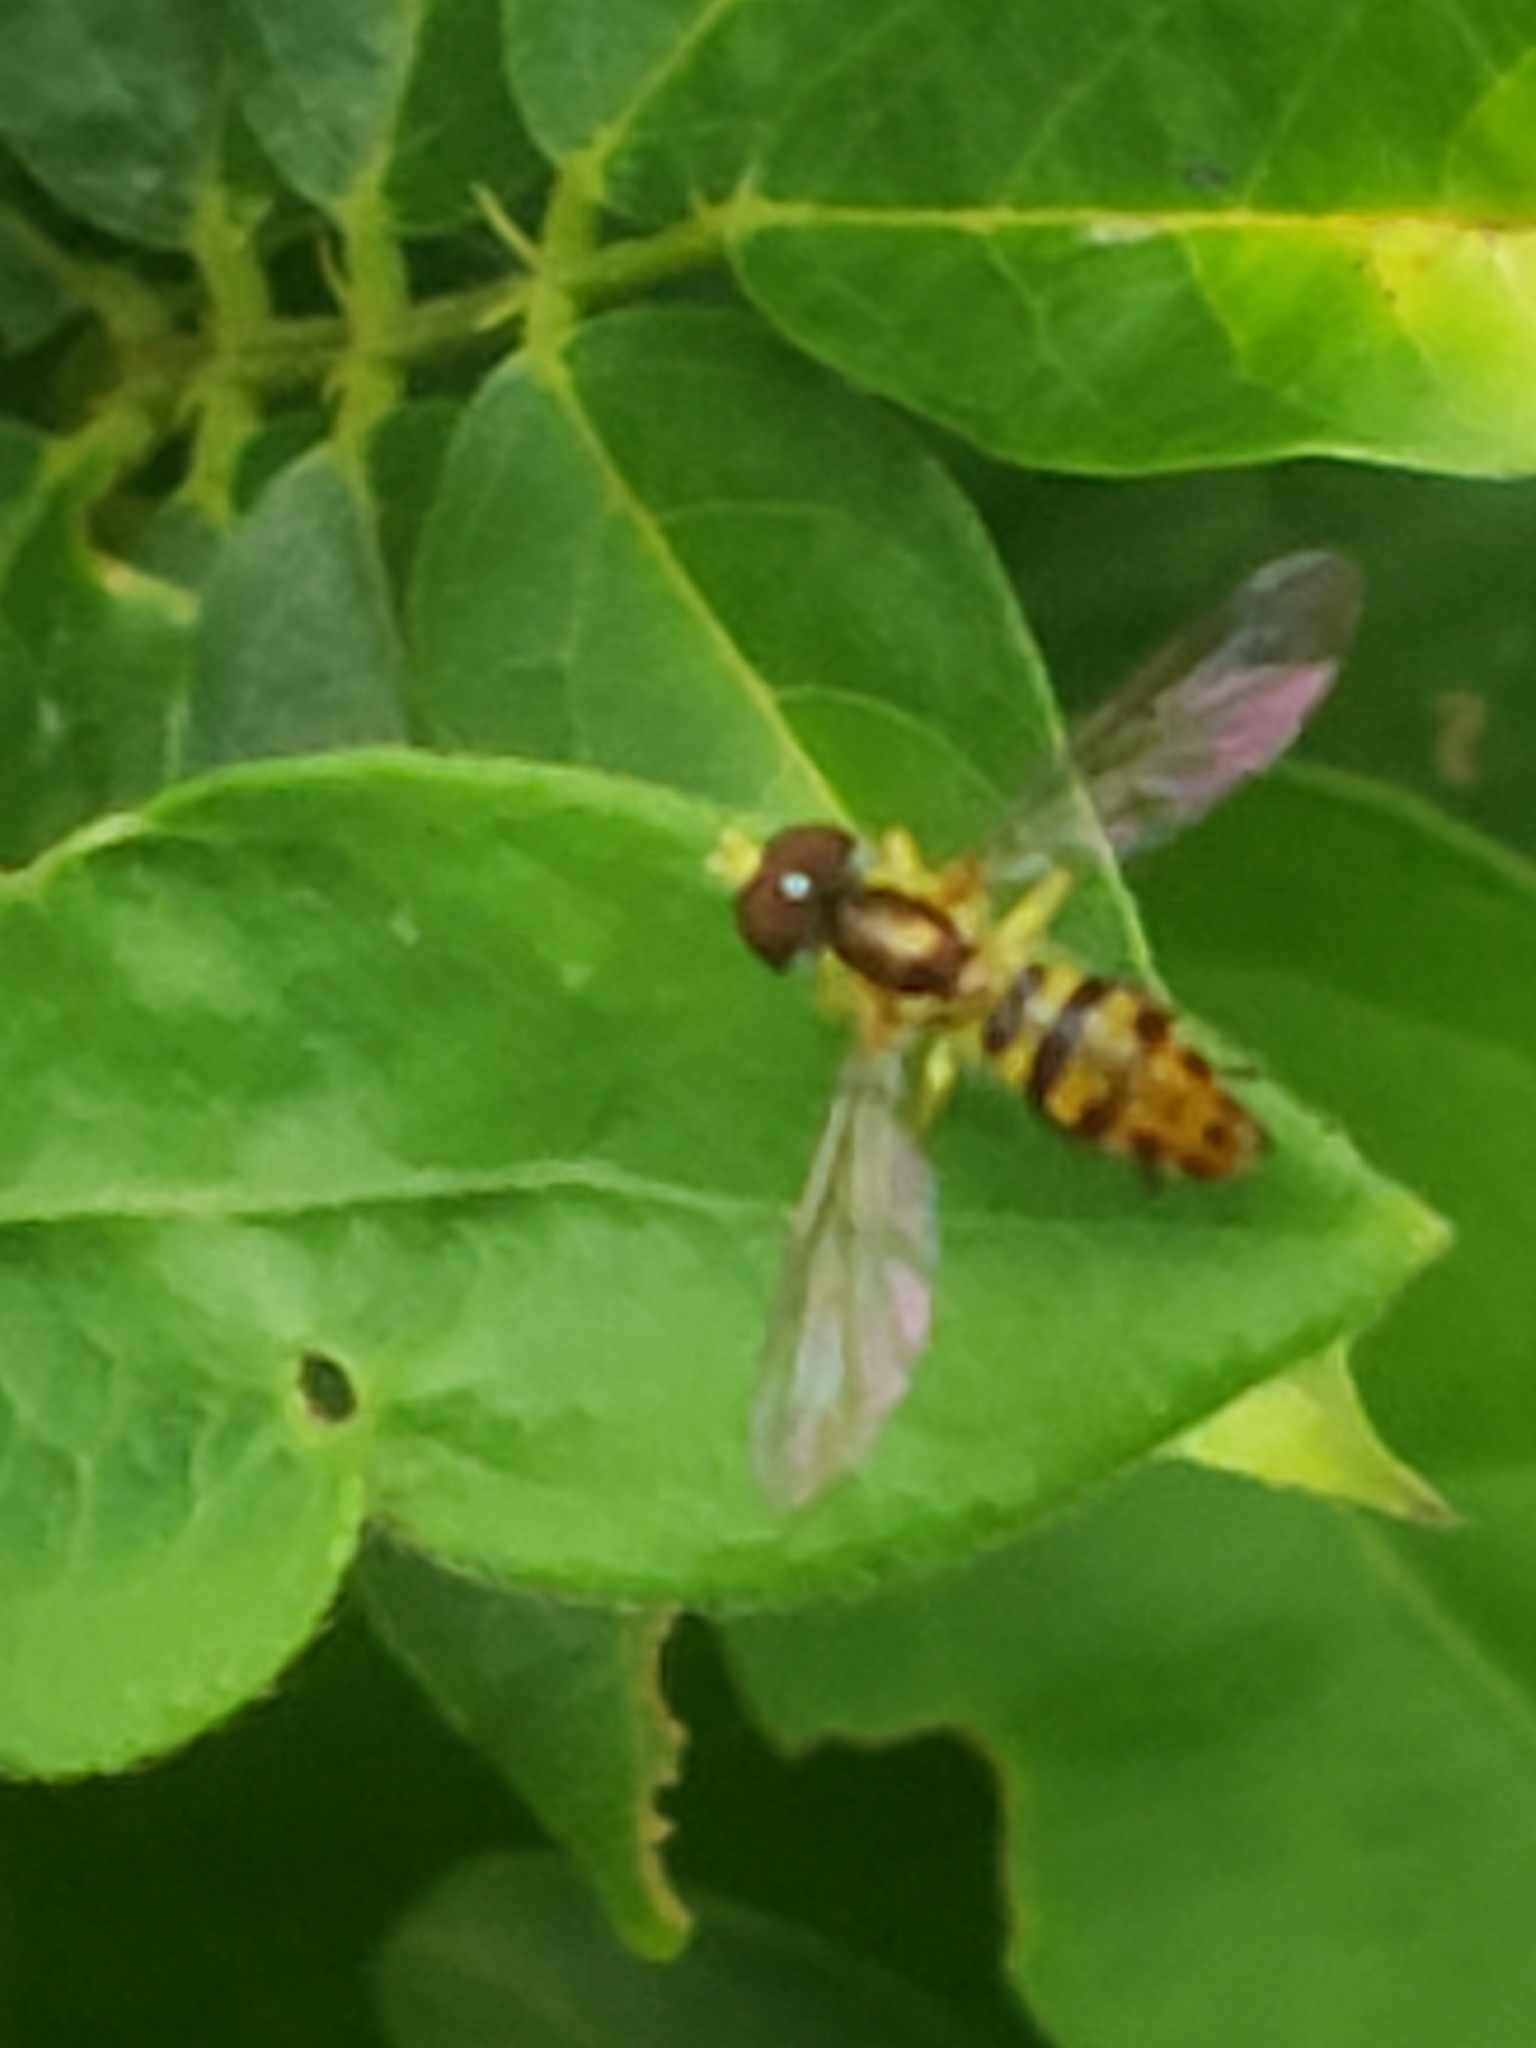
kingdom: Animalia
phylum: Arthropoda
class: Insecta
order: Diptera
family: Syrphidae
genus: Toxomerus
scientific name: Toxomerus geminatus
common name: Eastern calligrapher
